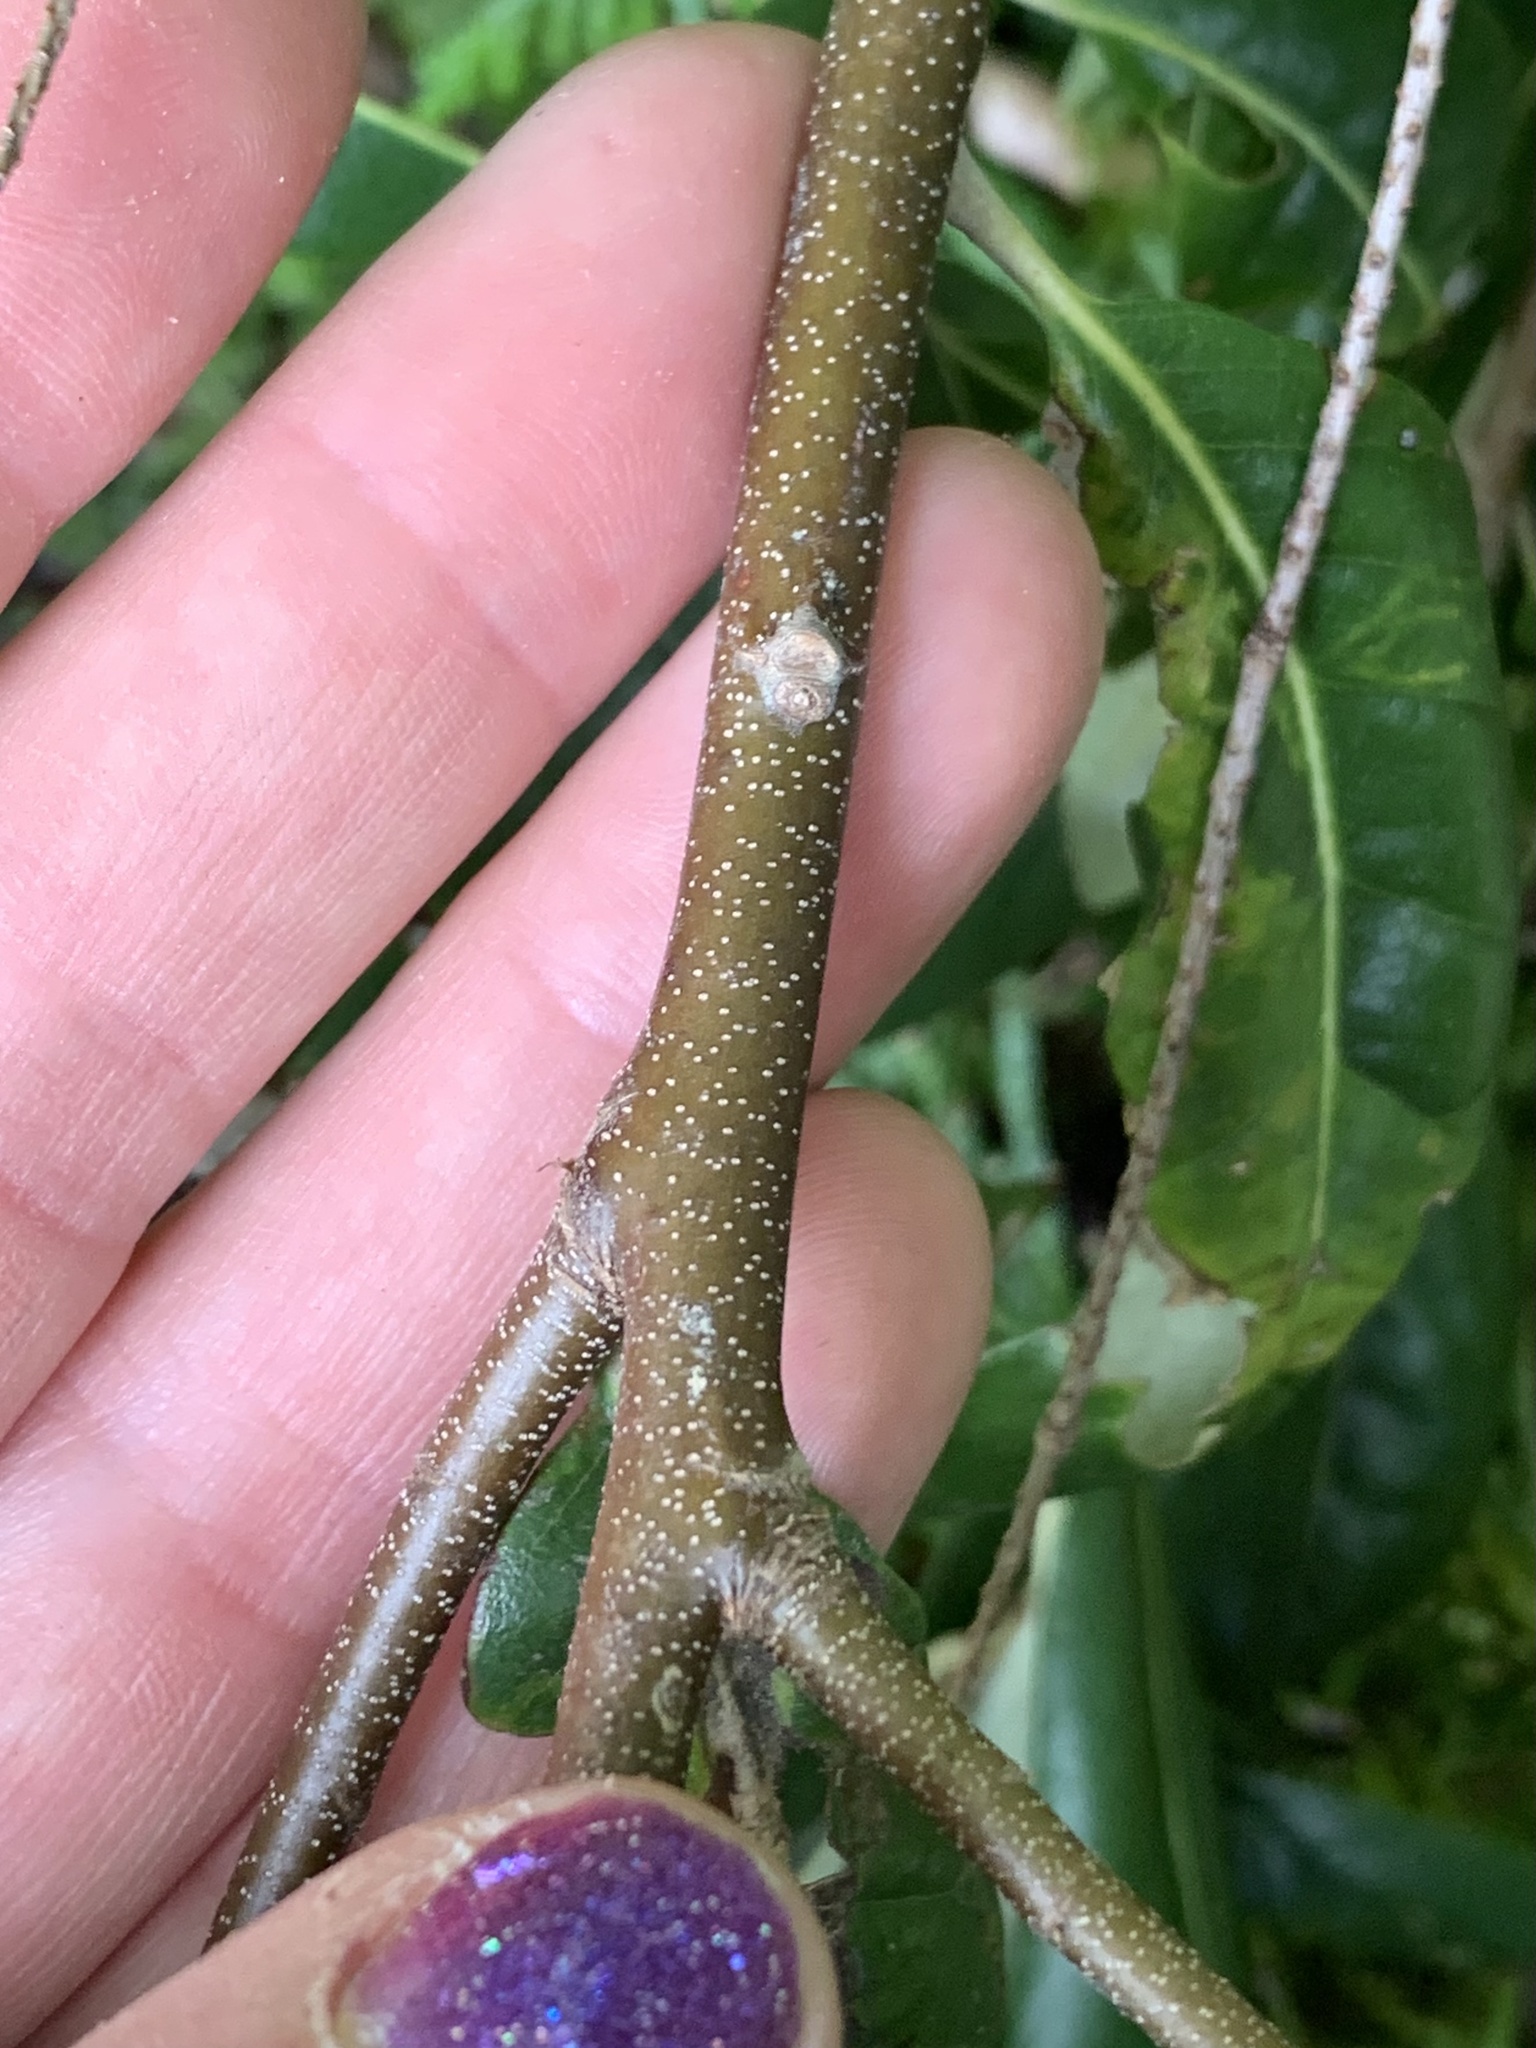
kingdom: Plantae
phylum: Tracheophyta
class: Magnoliopsida
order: Fagales
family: Fagaceae
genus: Chrysolepis
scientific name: Chrysolepis chrysophylla
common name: Giant chinquapin
